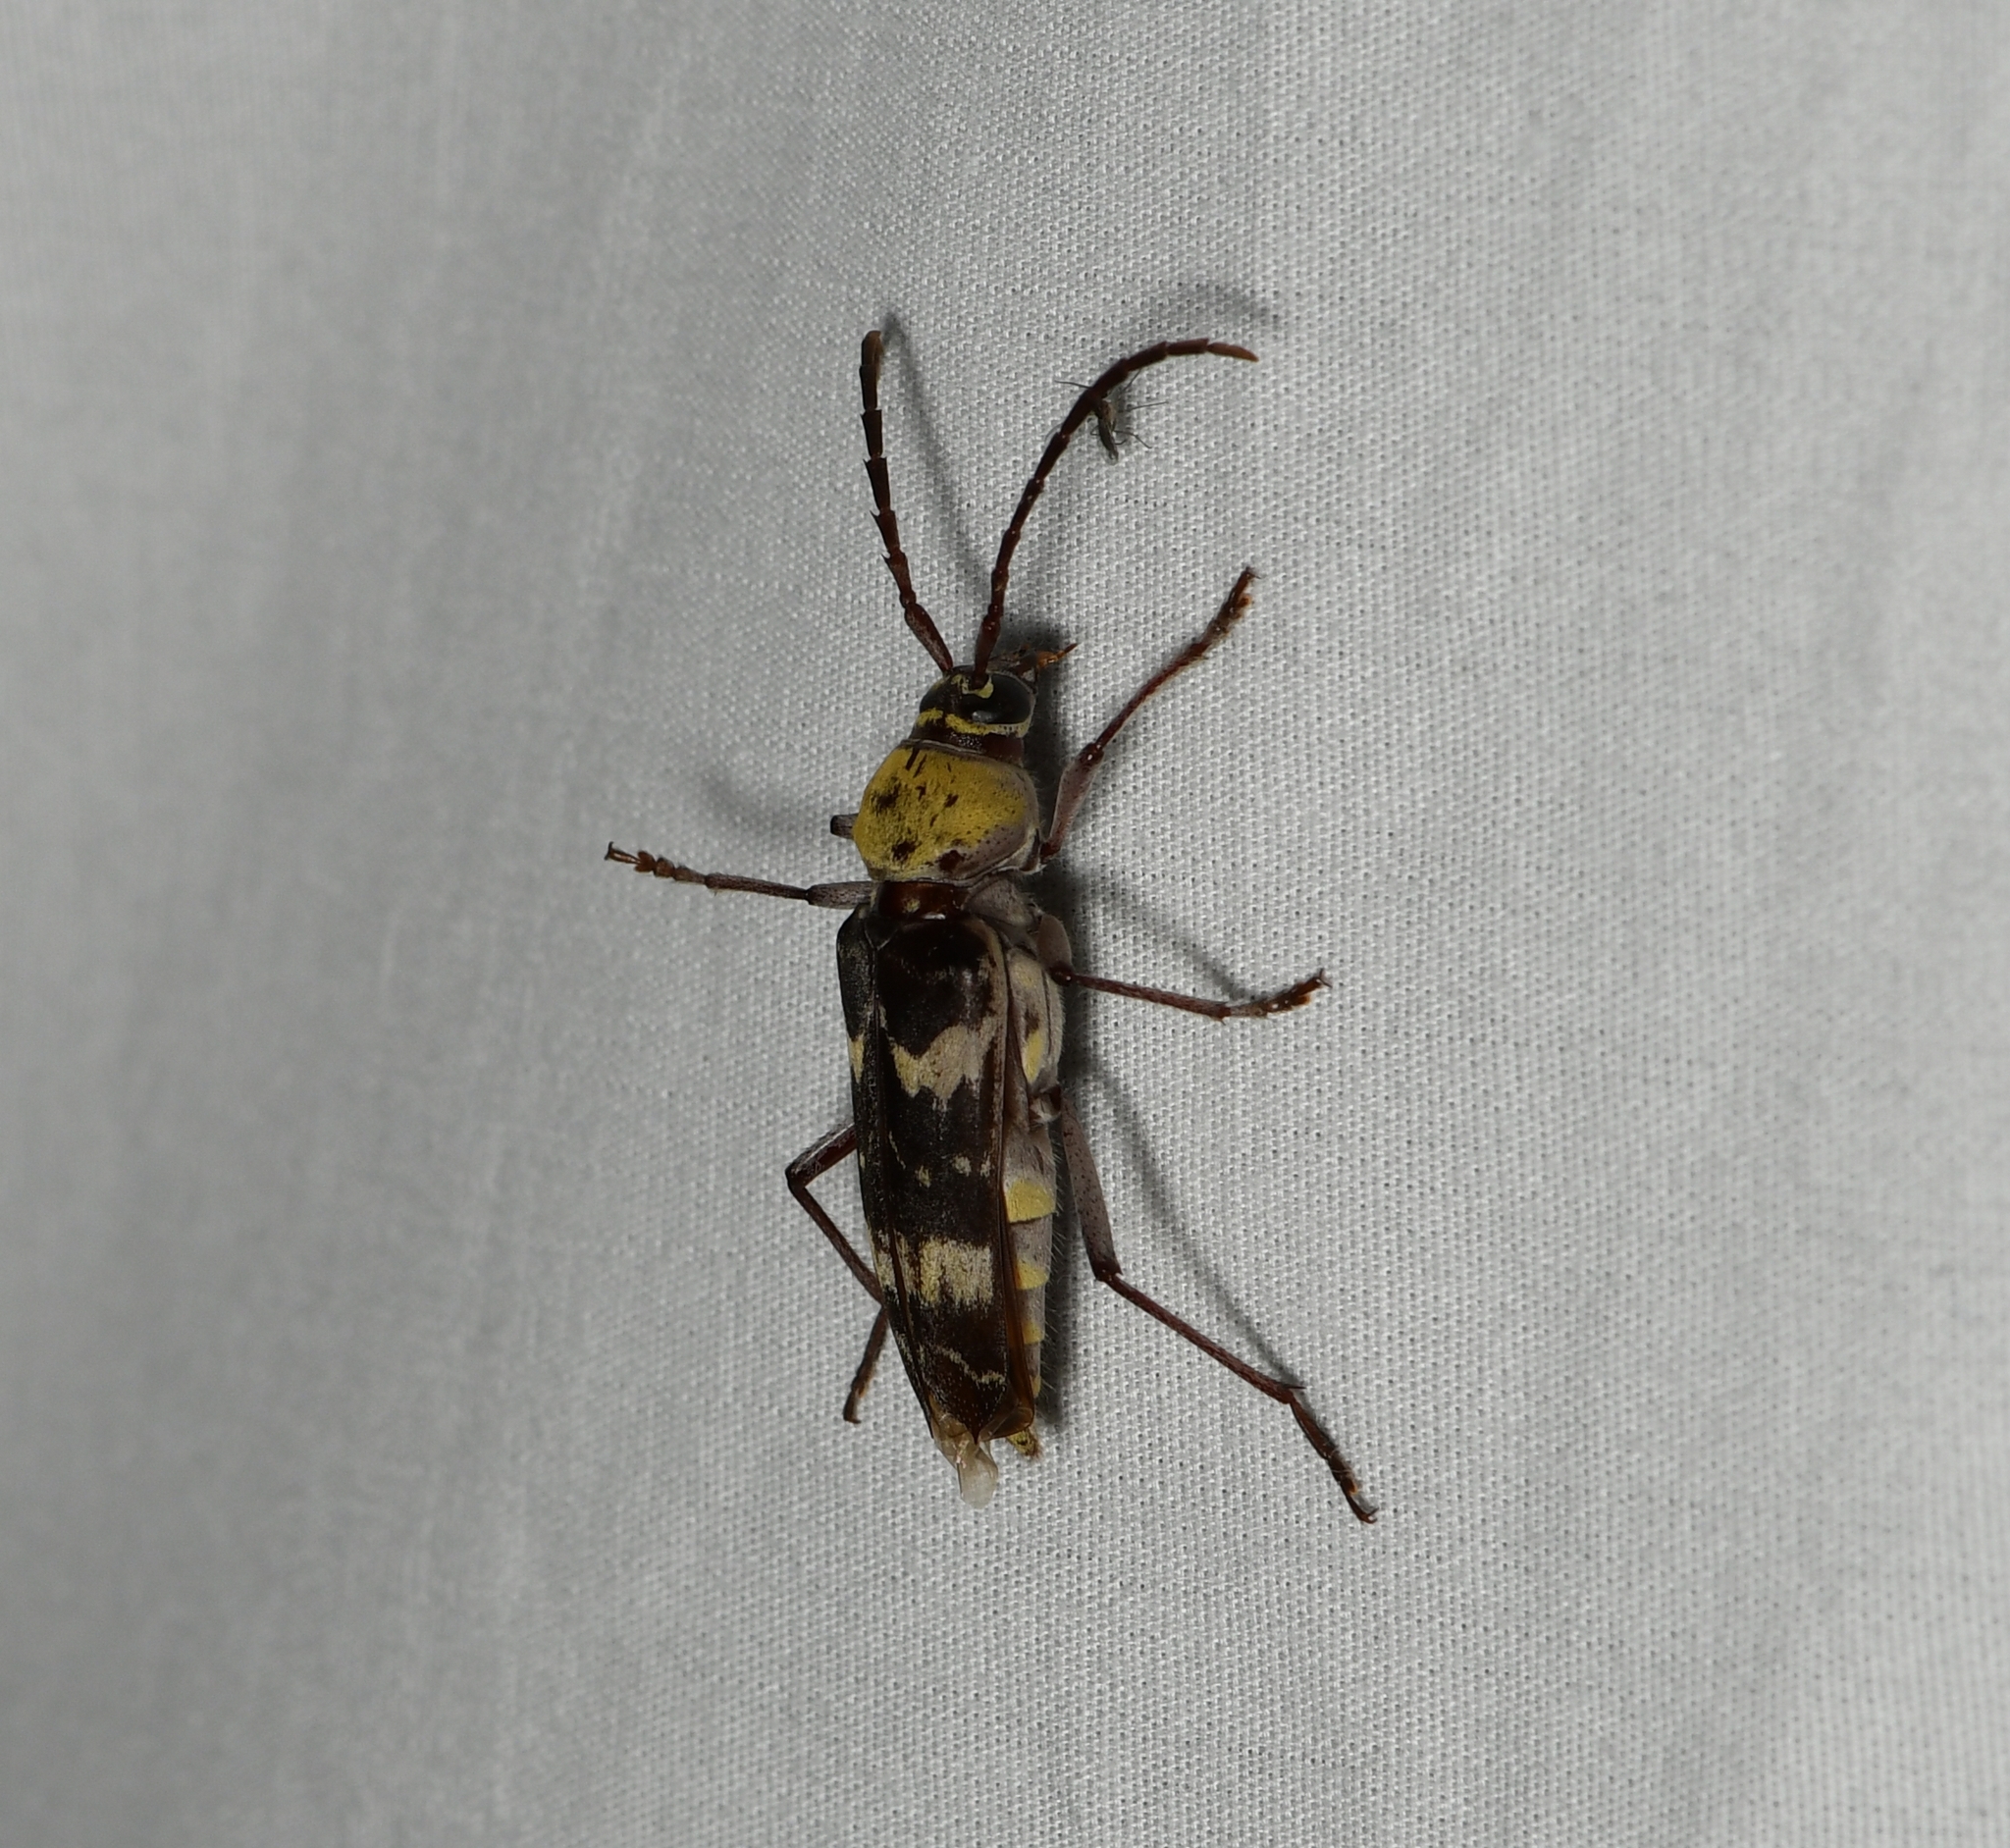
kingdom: Animalia
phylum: Arthropoda
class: Insecta
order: Coleoptera
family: Cerambycidae
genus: Megacyllene
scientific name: Megacyllene antennata
